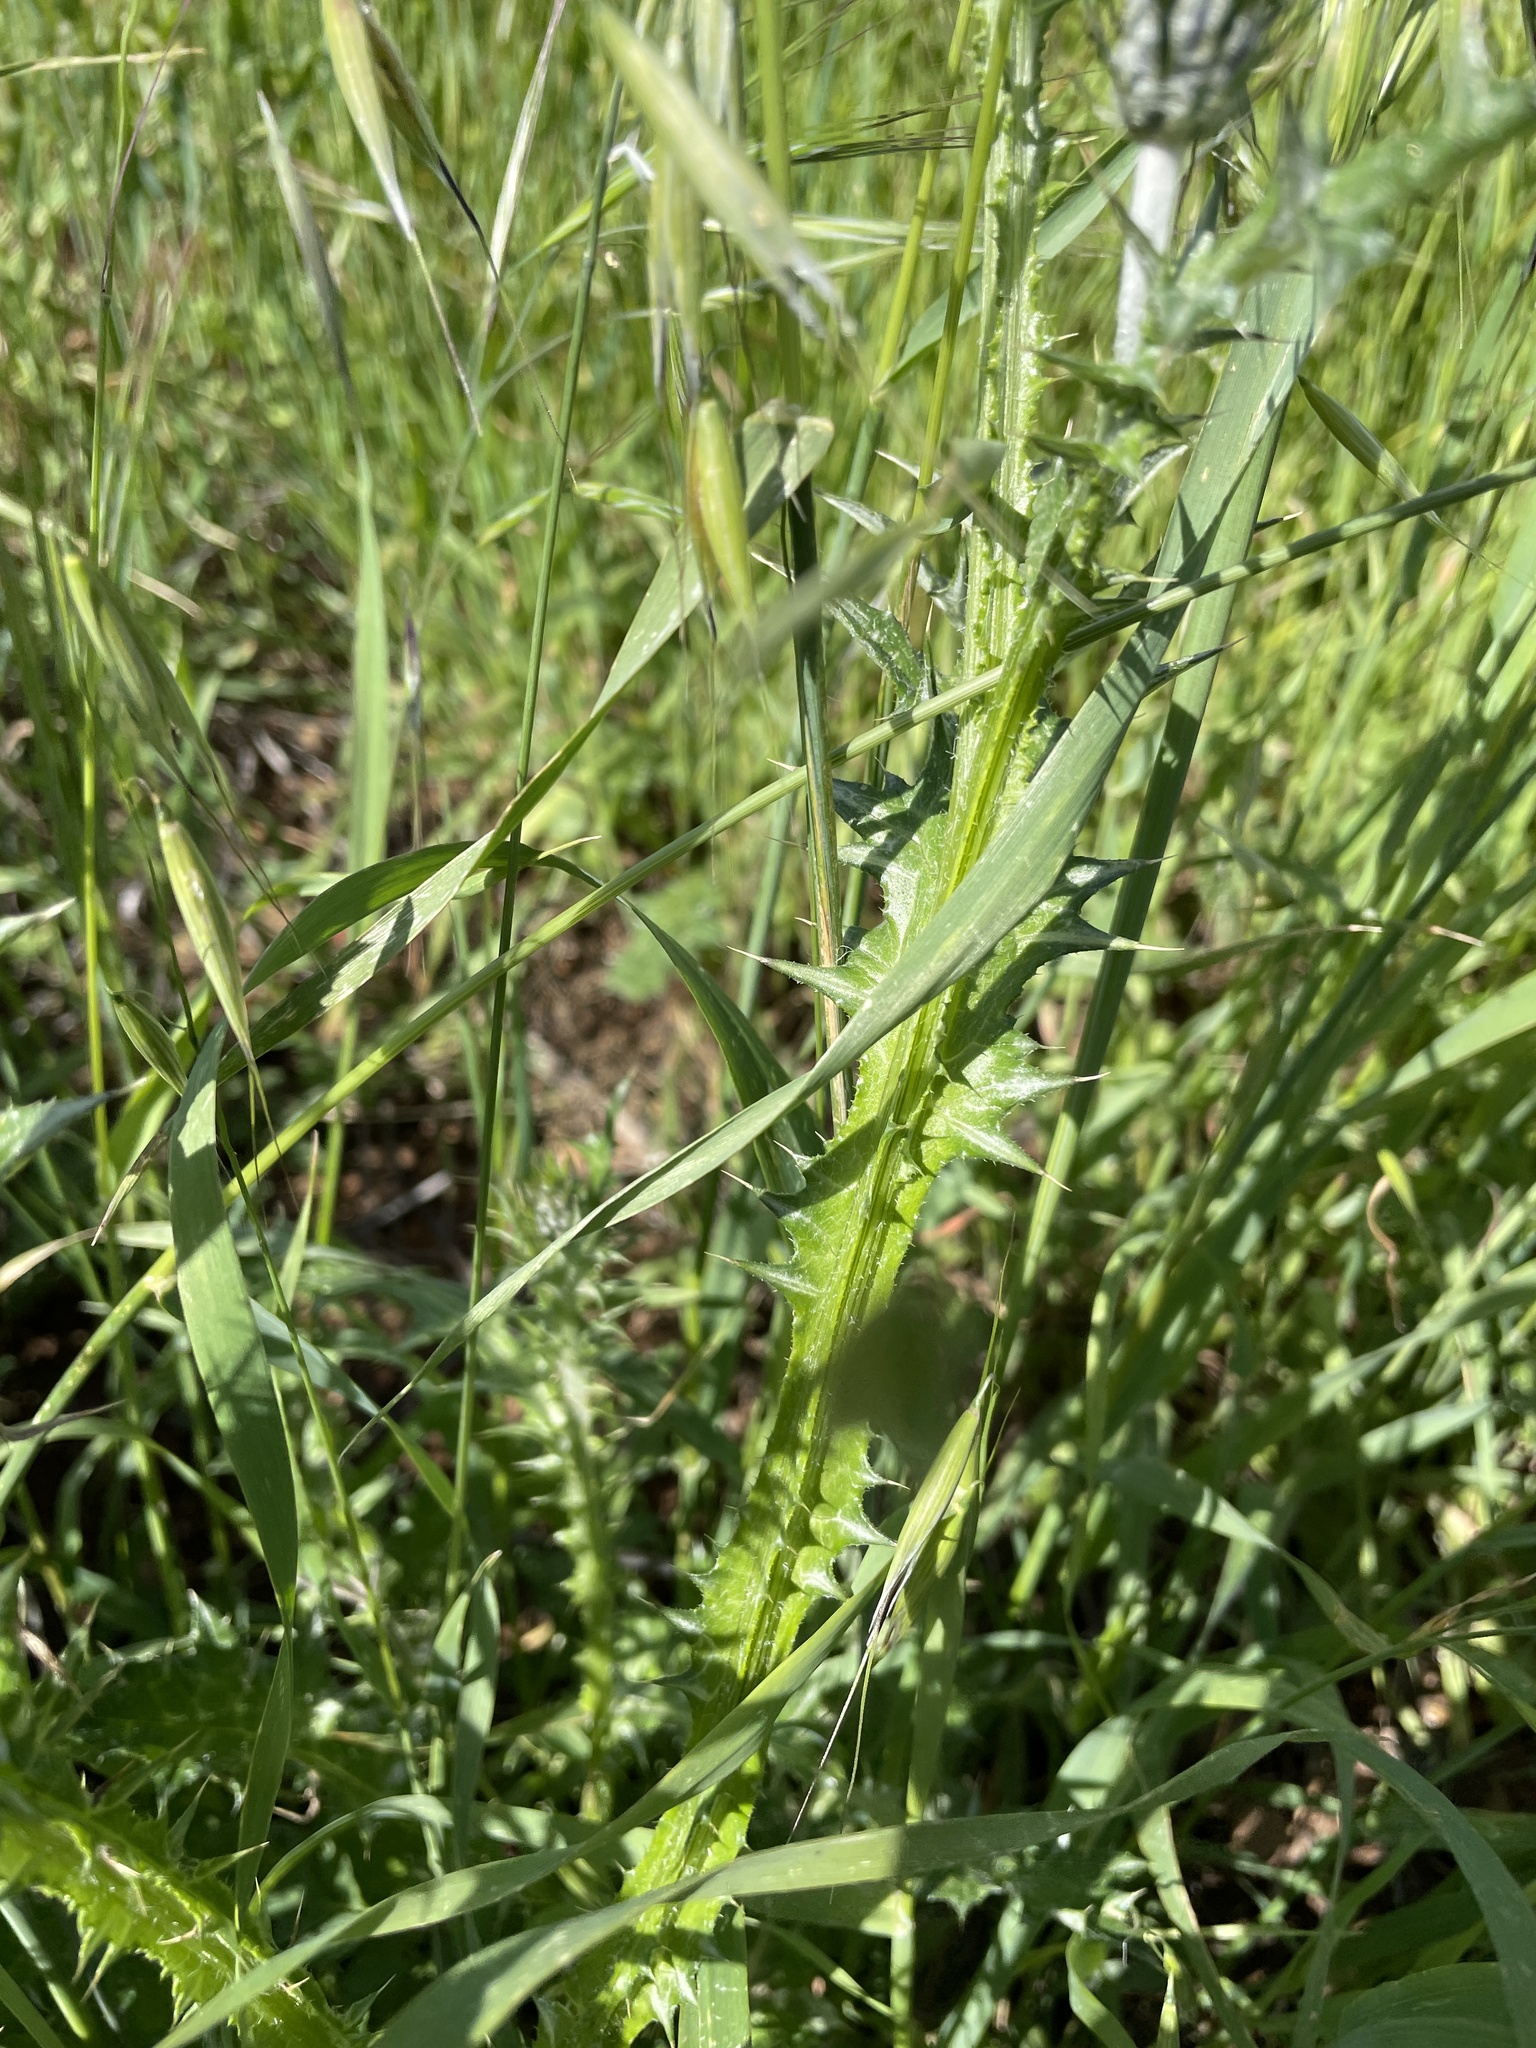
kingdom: Plantae
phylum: Tracheophyta
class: Magnoliopsida
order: Asterales
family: Asteraceae
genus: Carduus
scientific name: Carduus pycnocephalus
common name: Plymouth thistle
